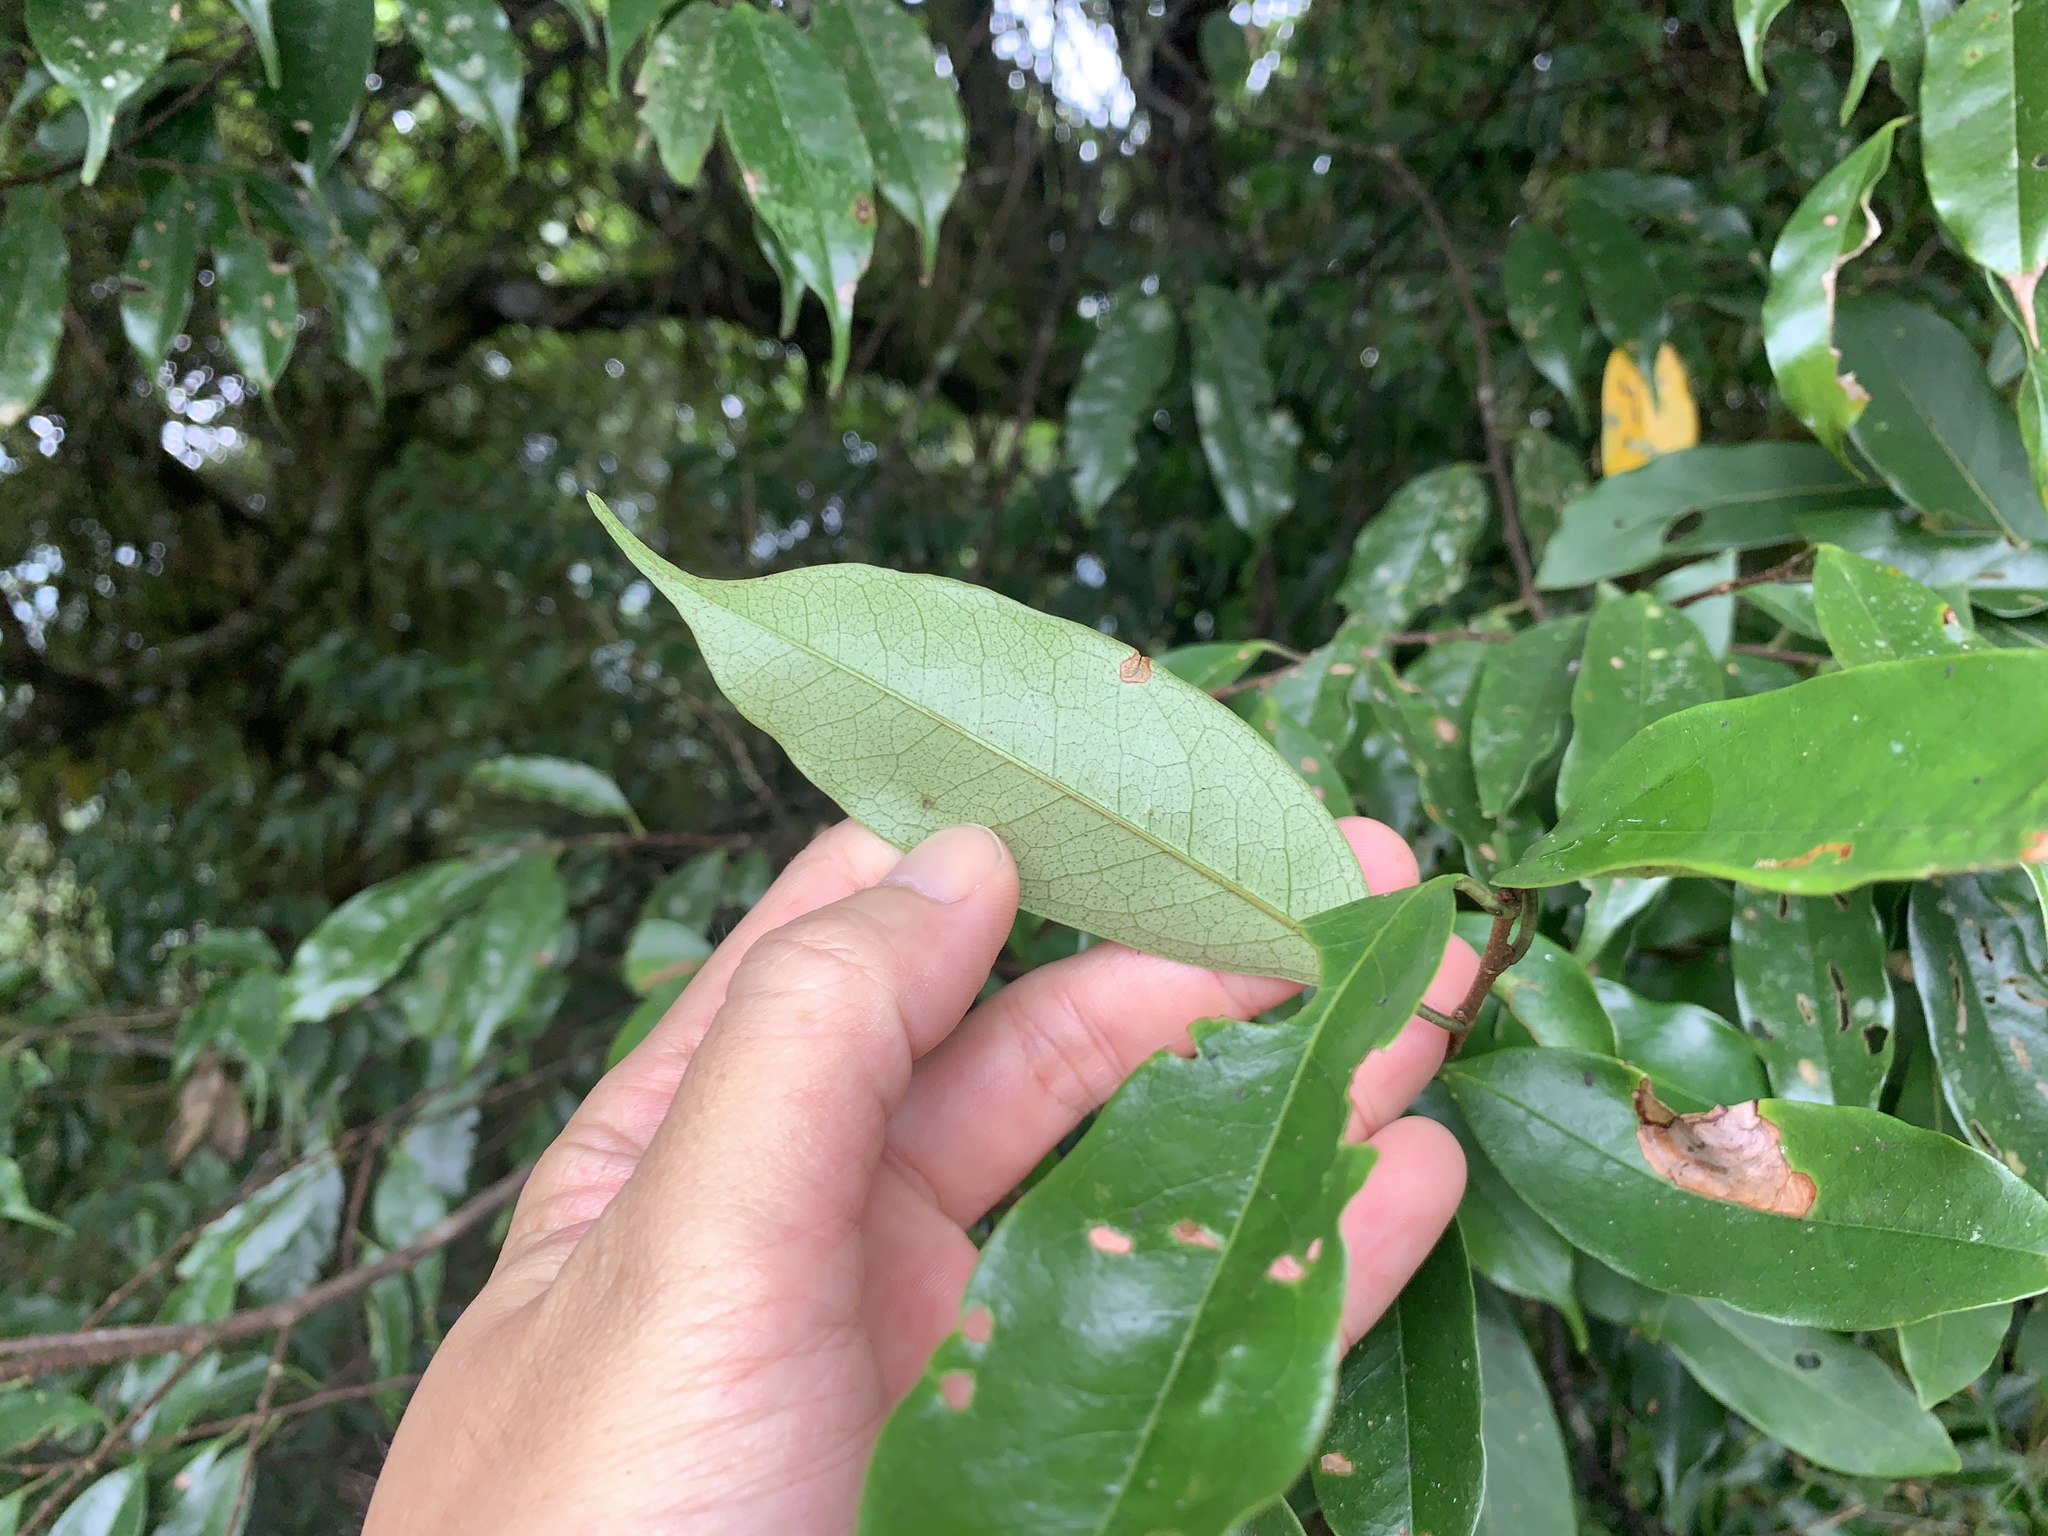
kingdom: Plantae
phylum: Tracheophyta
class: Magnoliopsida
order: Rosales
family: Rosaceae
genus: Prunus
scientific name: Prunus phaeosticta
